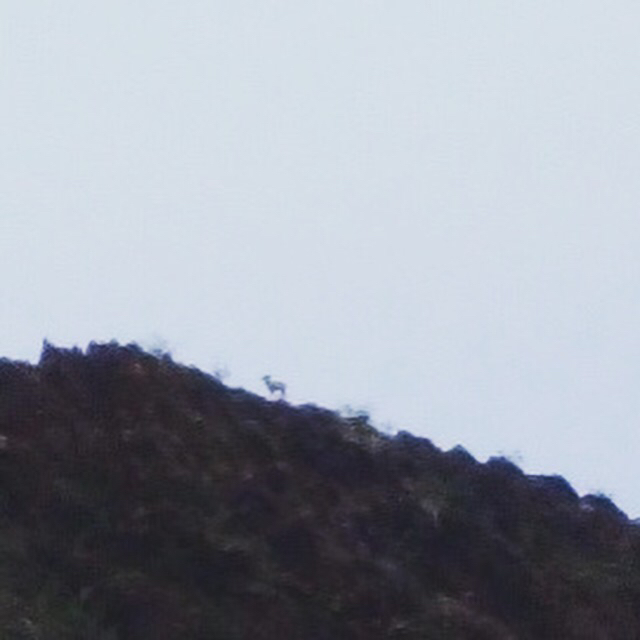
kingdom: Animalia
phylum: Chordata
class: Mammalia
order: Artiodactyla
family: Bovidae
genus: Ovis
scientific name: Ovis canadensis
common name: Bighorn sheep
